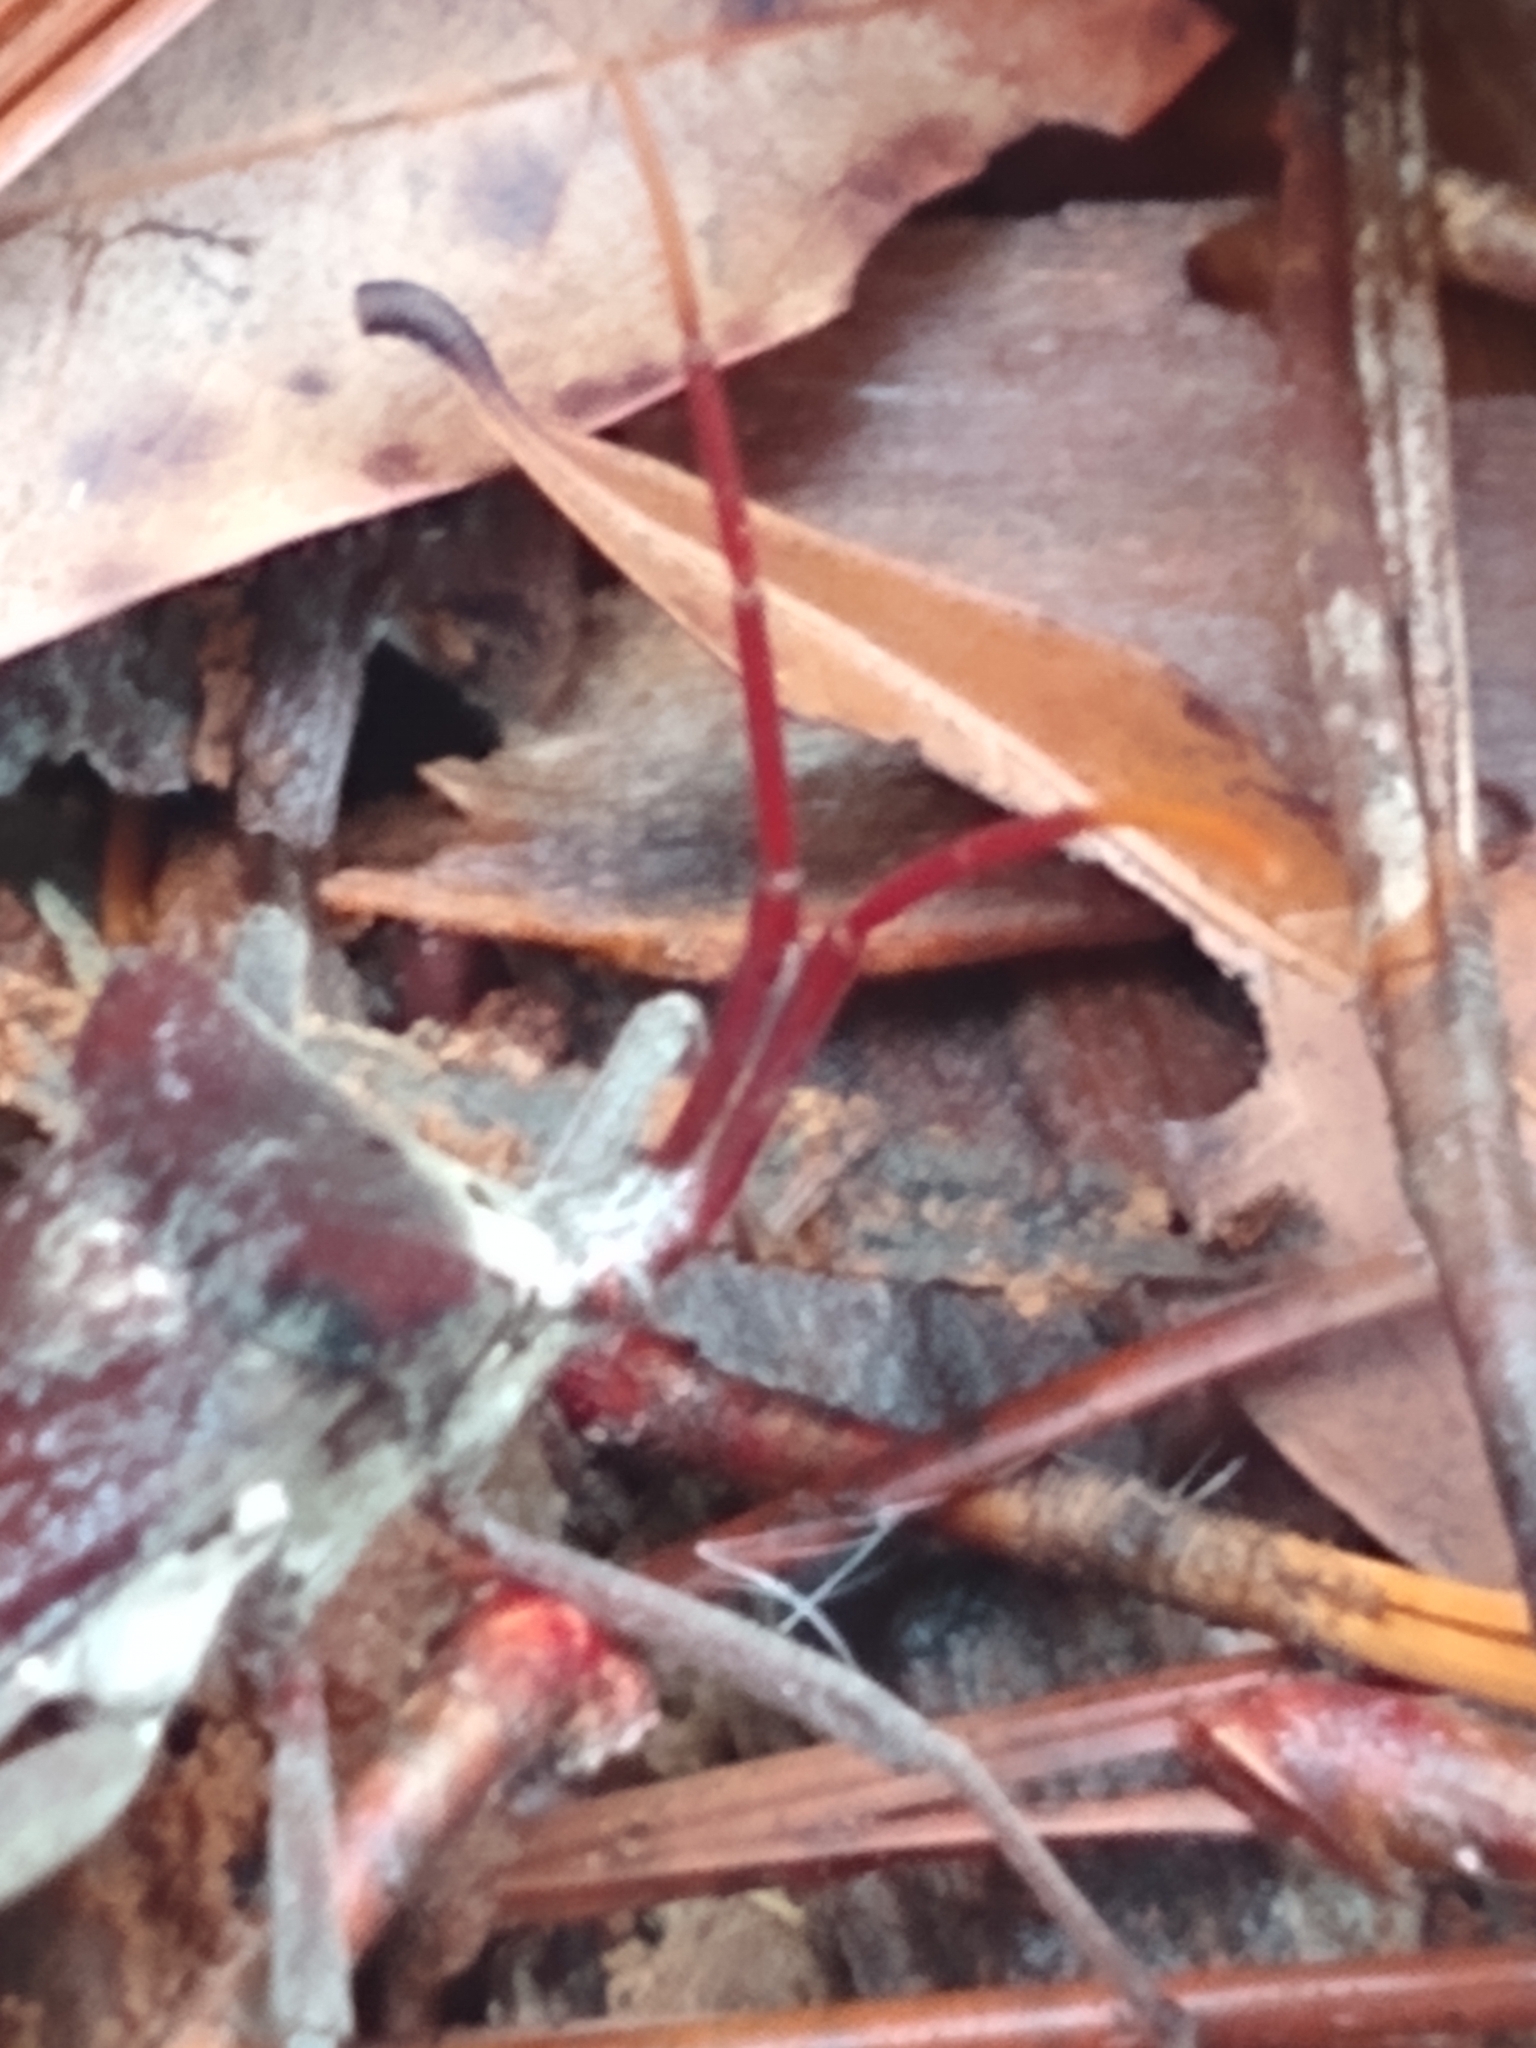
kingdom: Animalia
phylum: Arthropoda
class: Insecta
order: Hemiptera
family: Coreidae
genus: Acanthocephala
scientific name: Acanthocephala declivis
